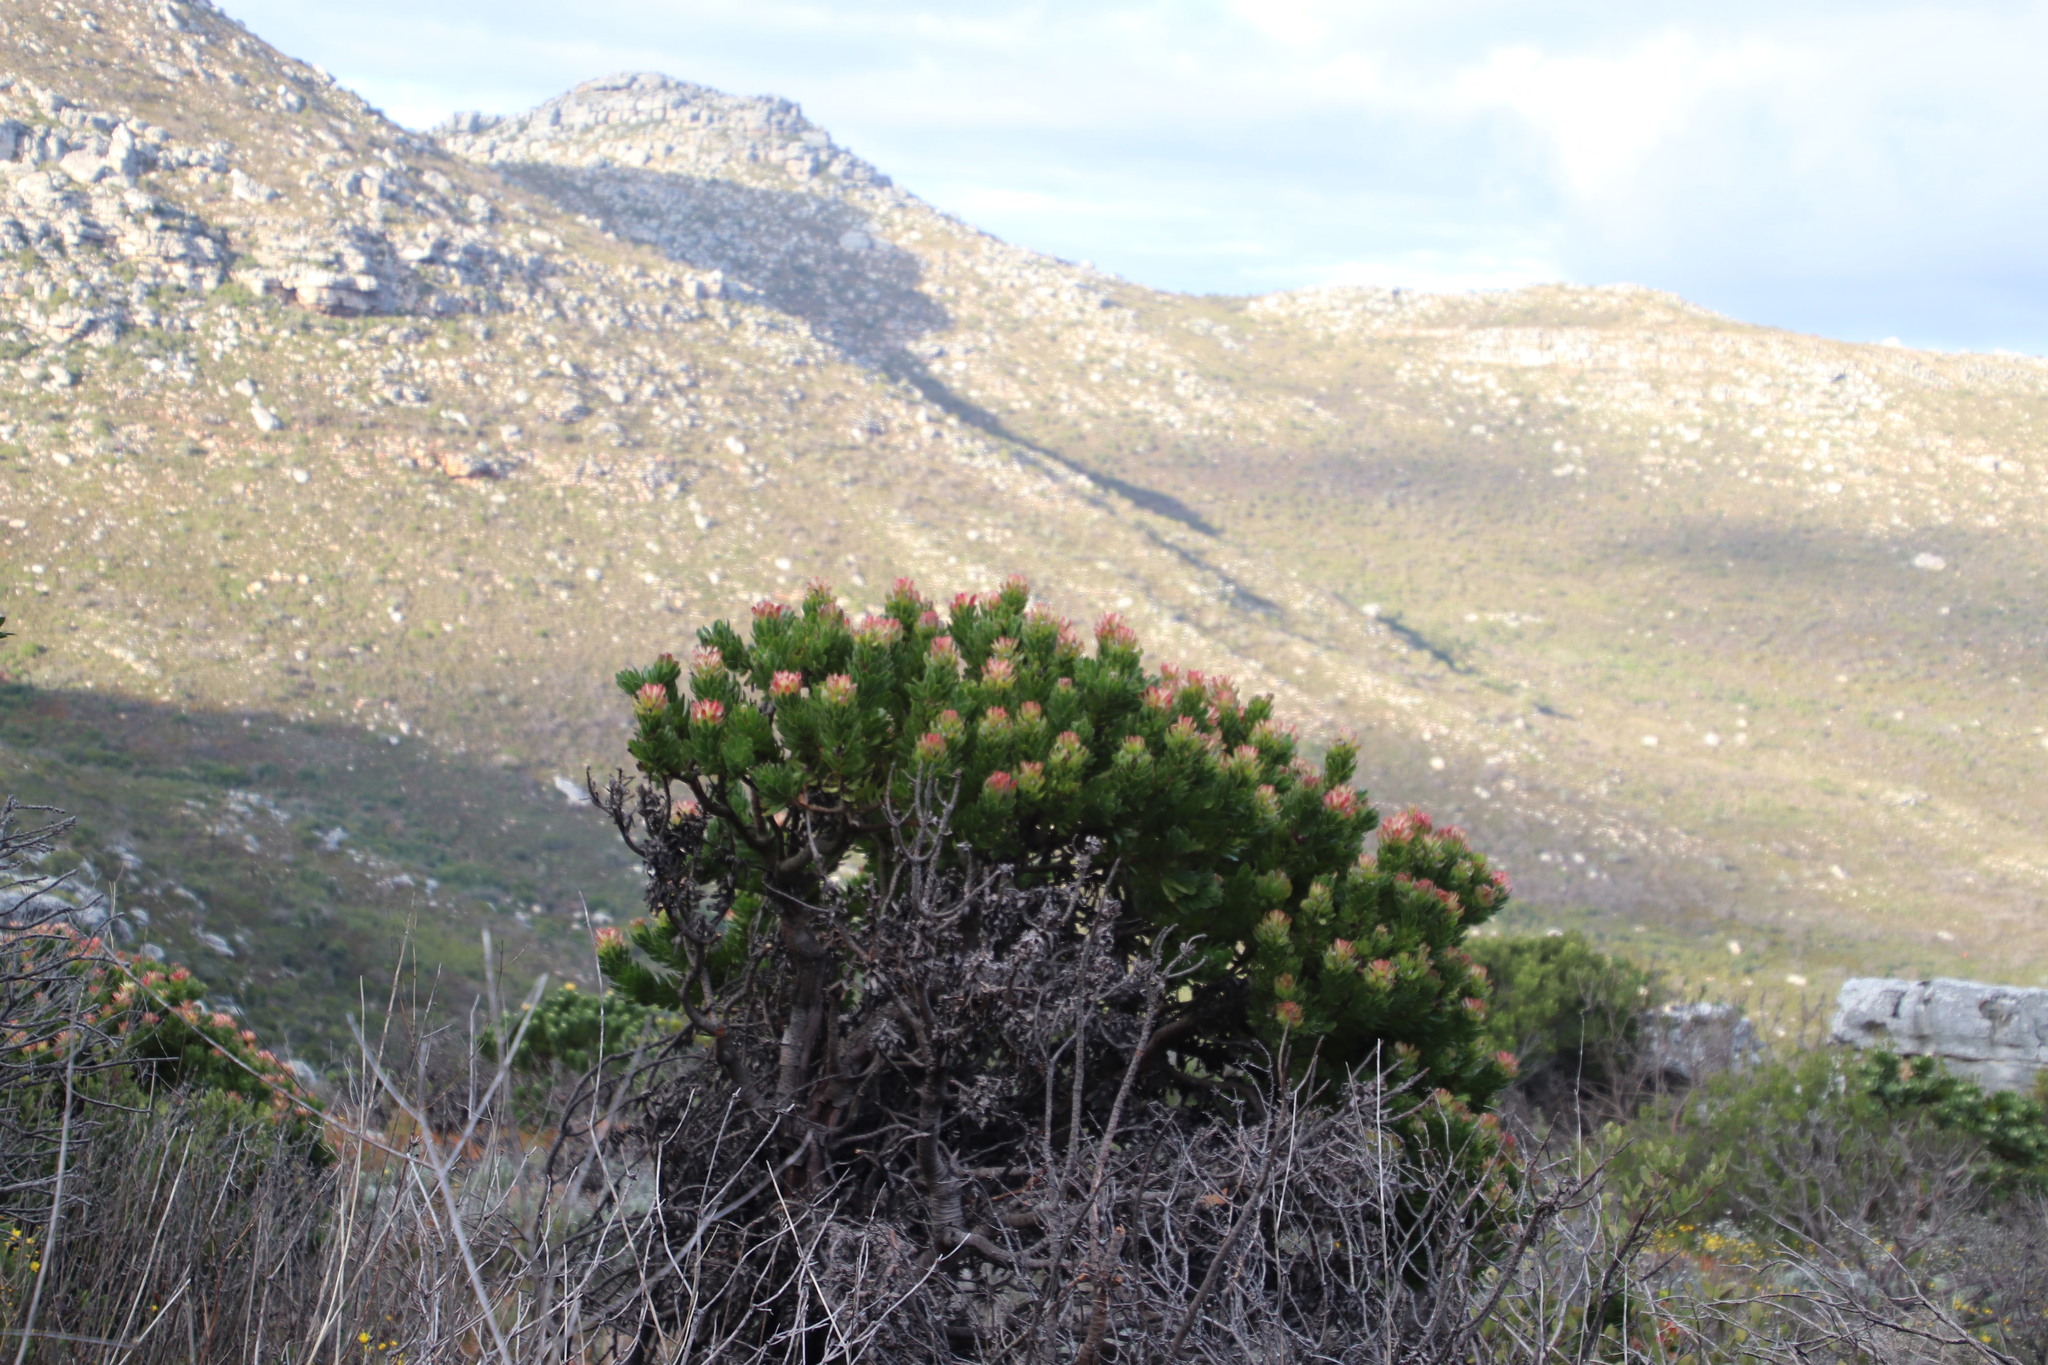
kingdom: Plantae
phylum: Tracheophyta
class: Magnoliopsida
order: Proteales
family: Proteaceae
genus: Mimetes
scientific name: Mimetes fimbriifolius
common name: Fringed bottlebrush
